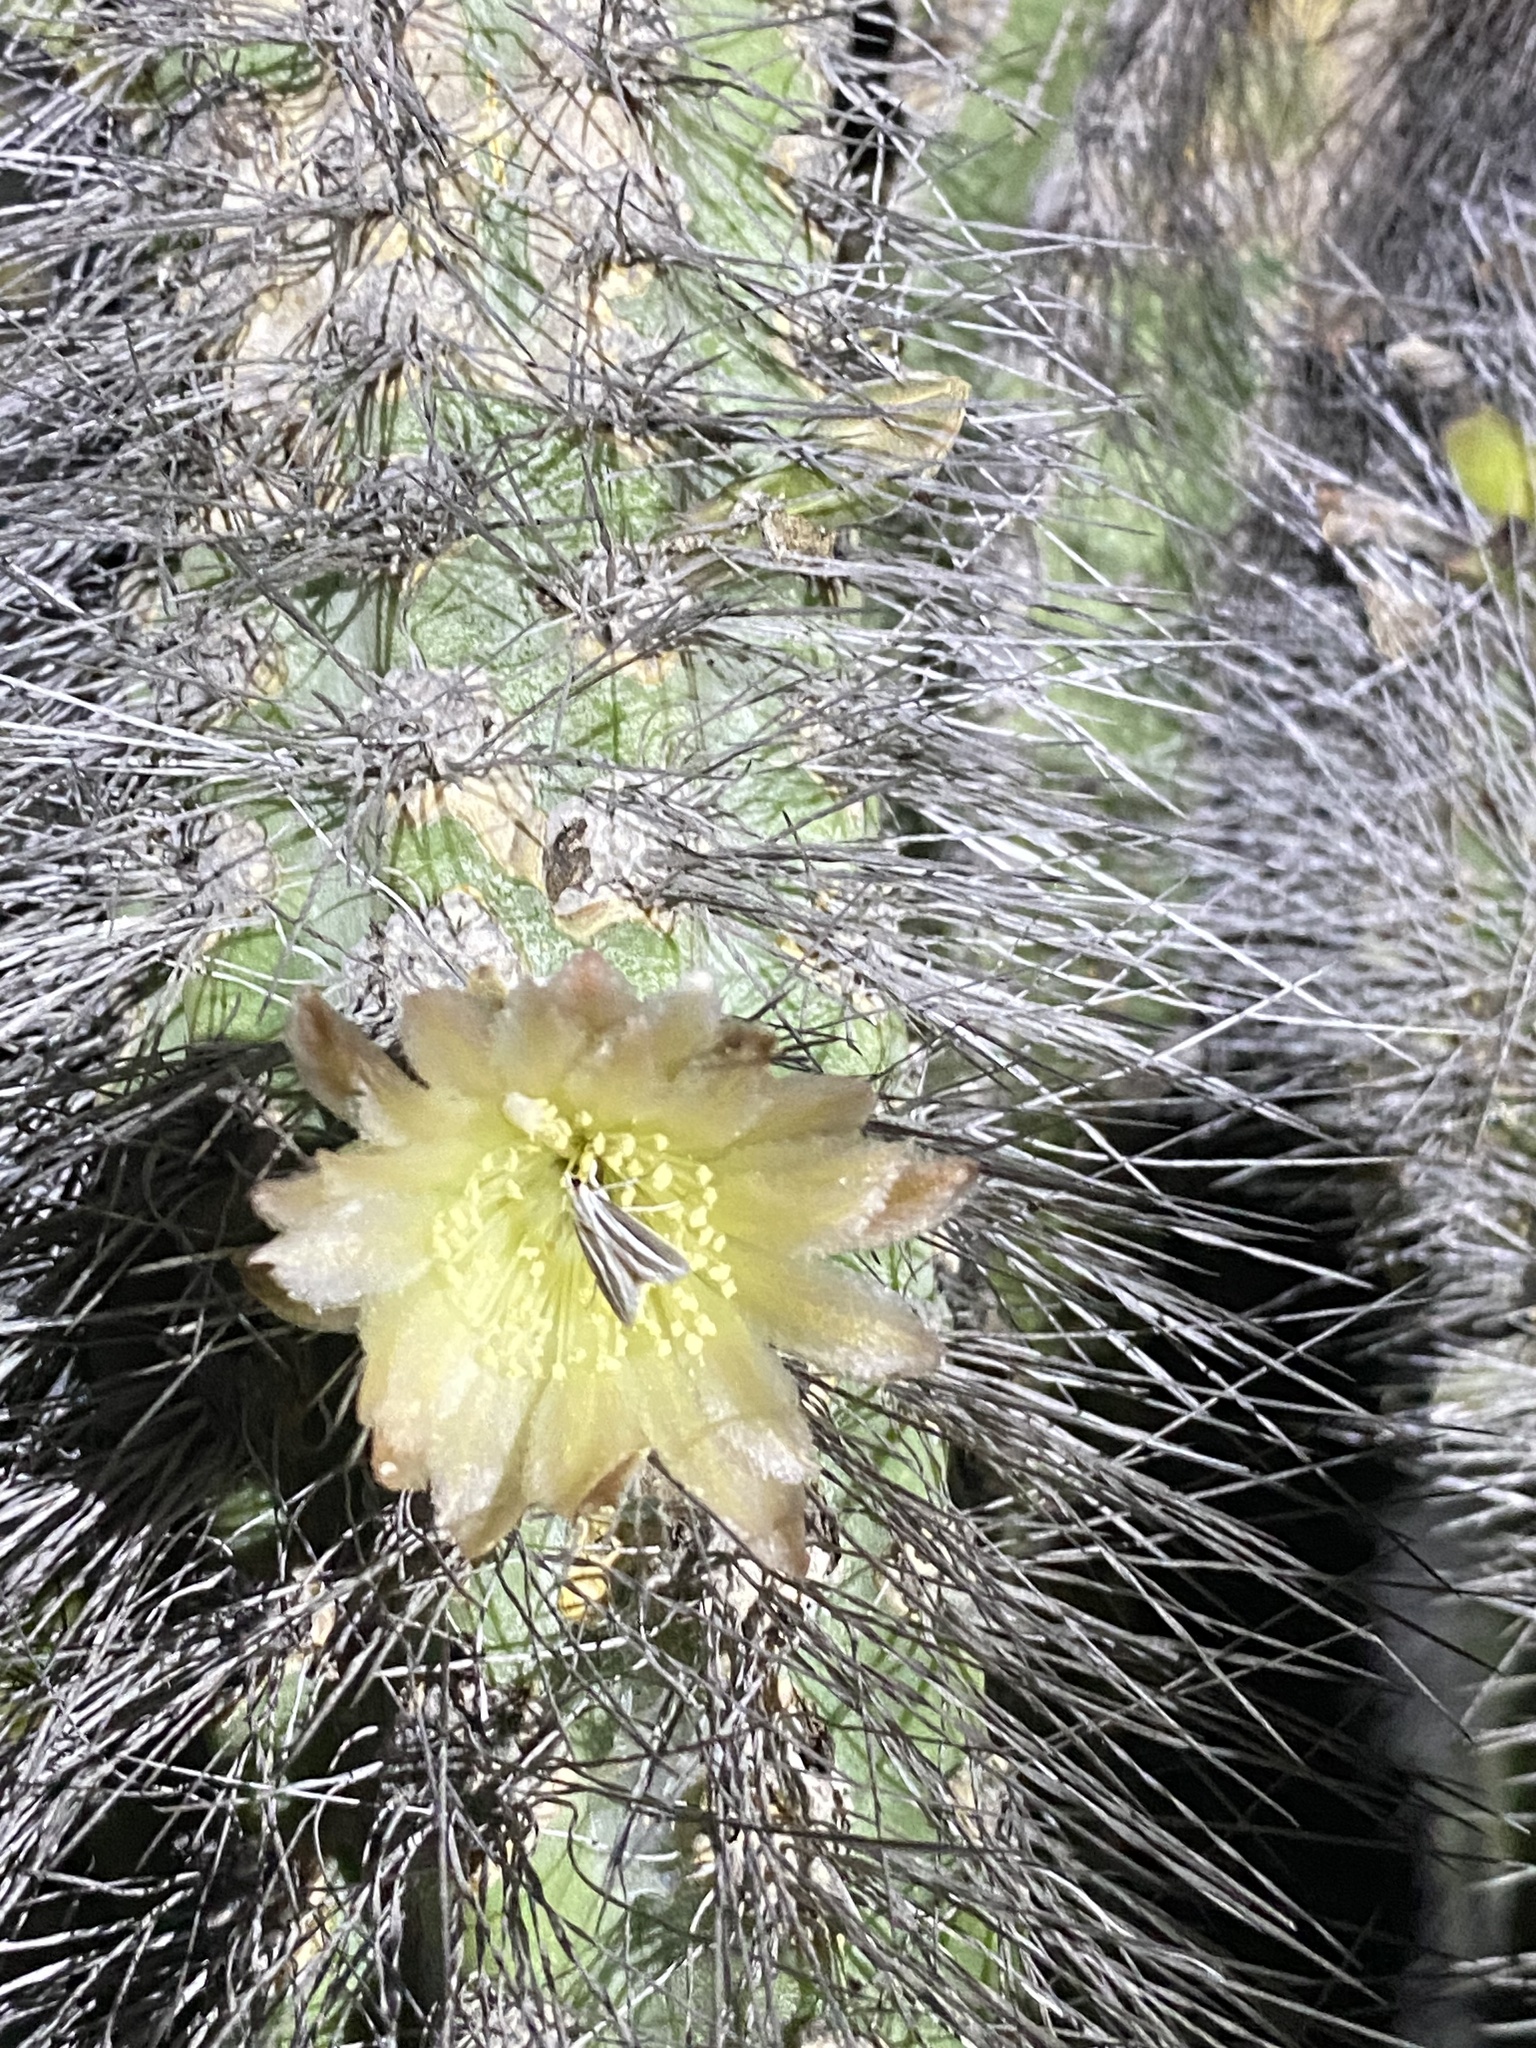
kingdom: Plantae
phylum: Tracheophyta
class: Magnoliopsida
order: Caryophyllales
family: Cactaceae
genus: Pachycereus
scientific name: Pachycereus schottii
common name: Senita cactus
